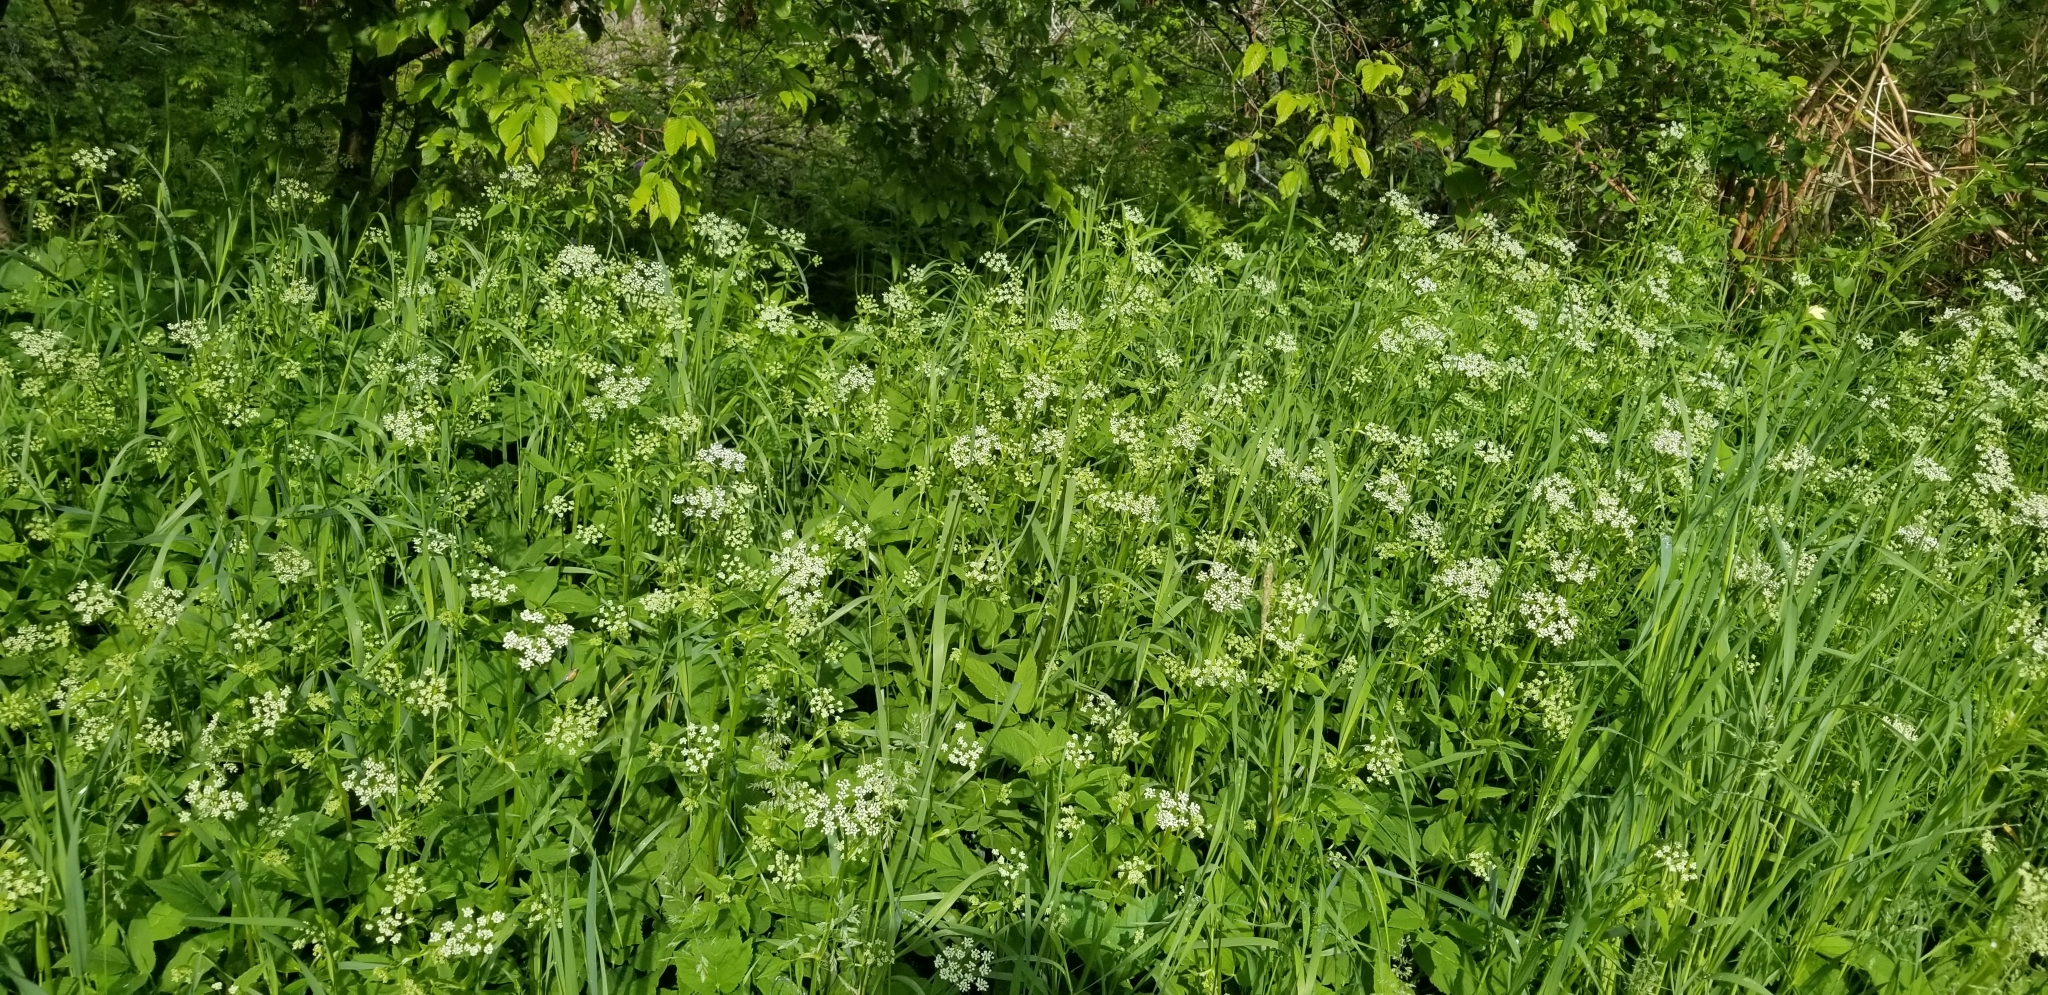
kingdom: Plantae
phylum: Tracheophyta
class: Magnoliopsida
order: Apiales
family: Apiaceae
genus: Aegopodium
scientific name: Aegopodium podagraria
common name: Ground-elder
